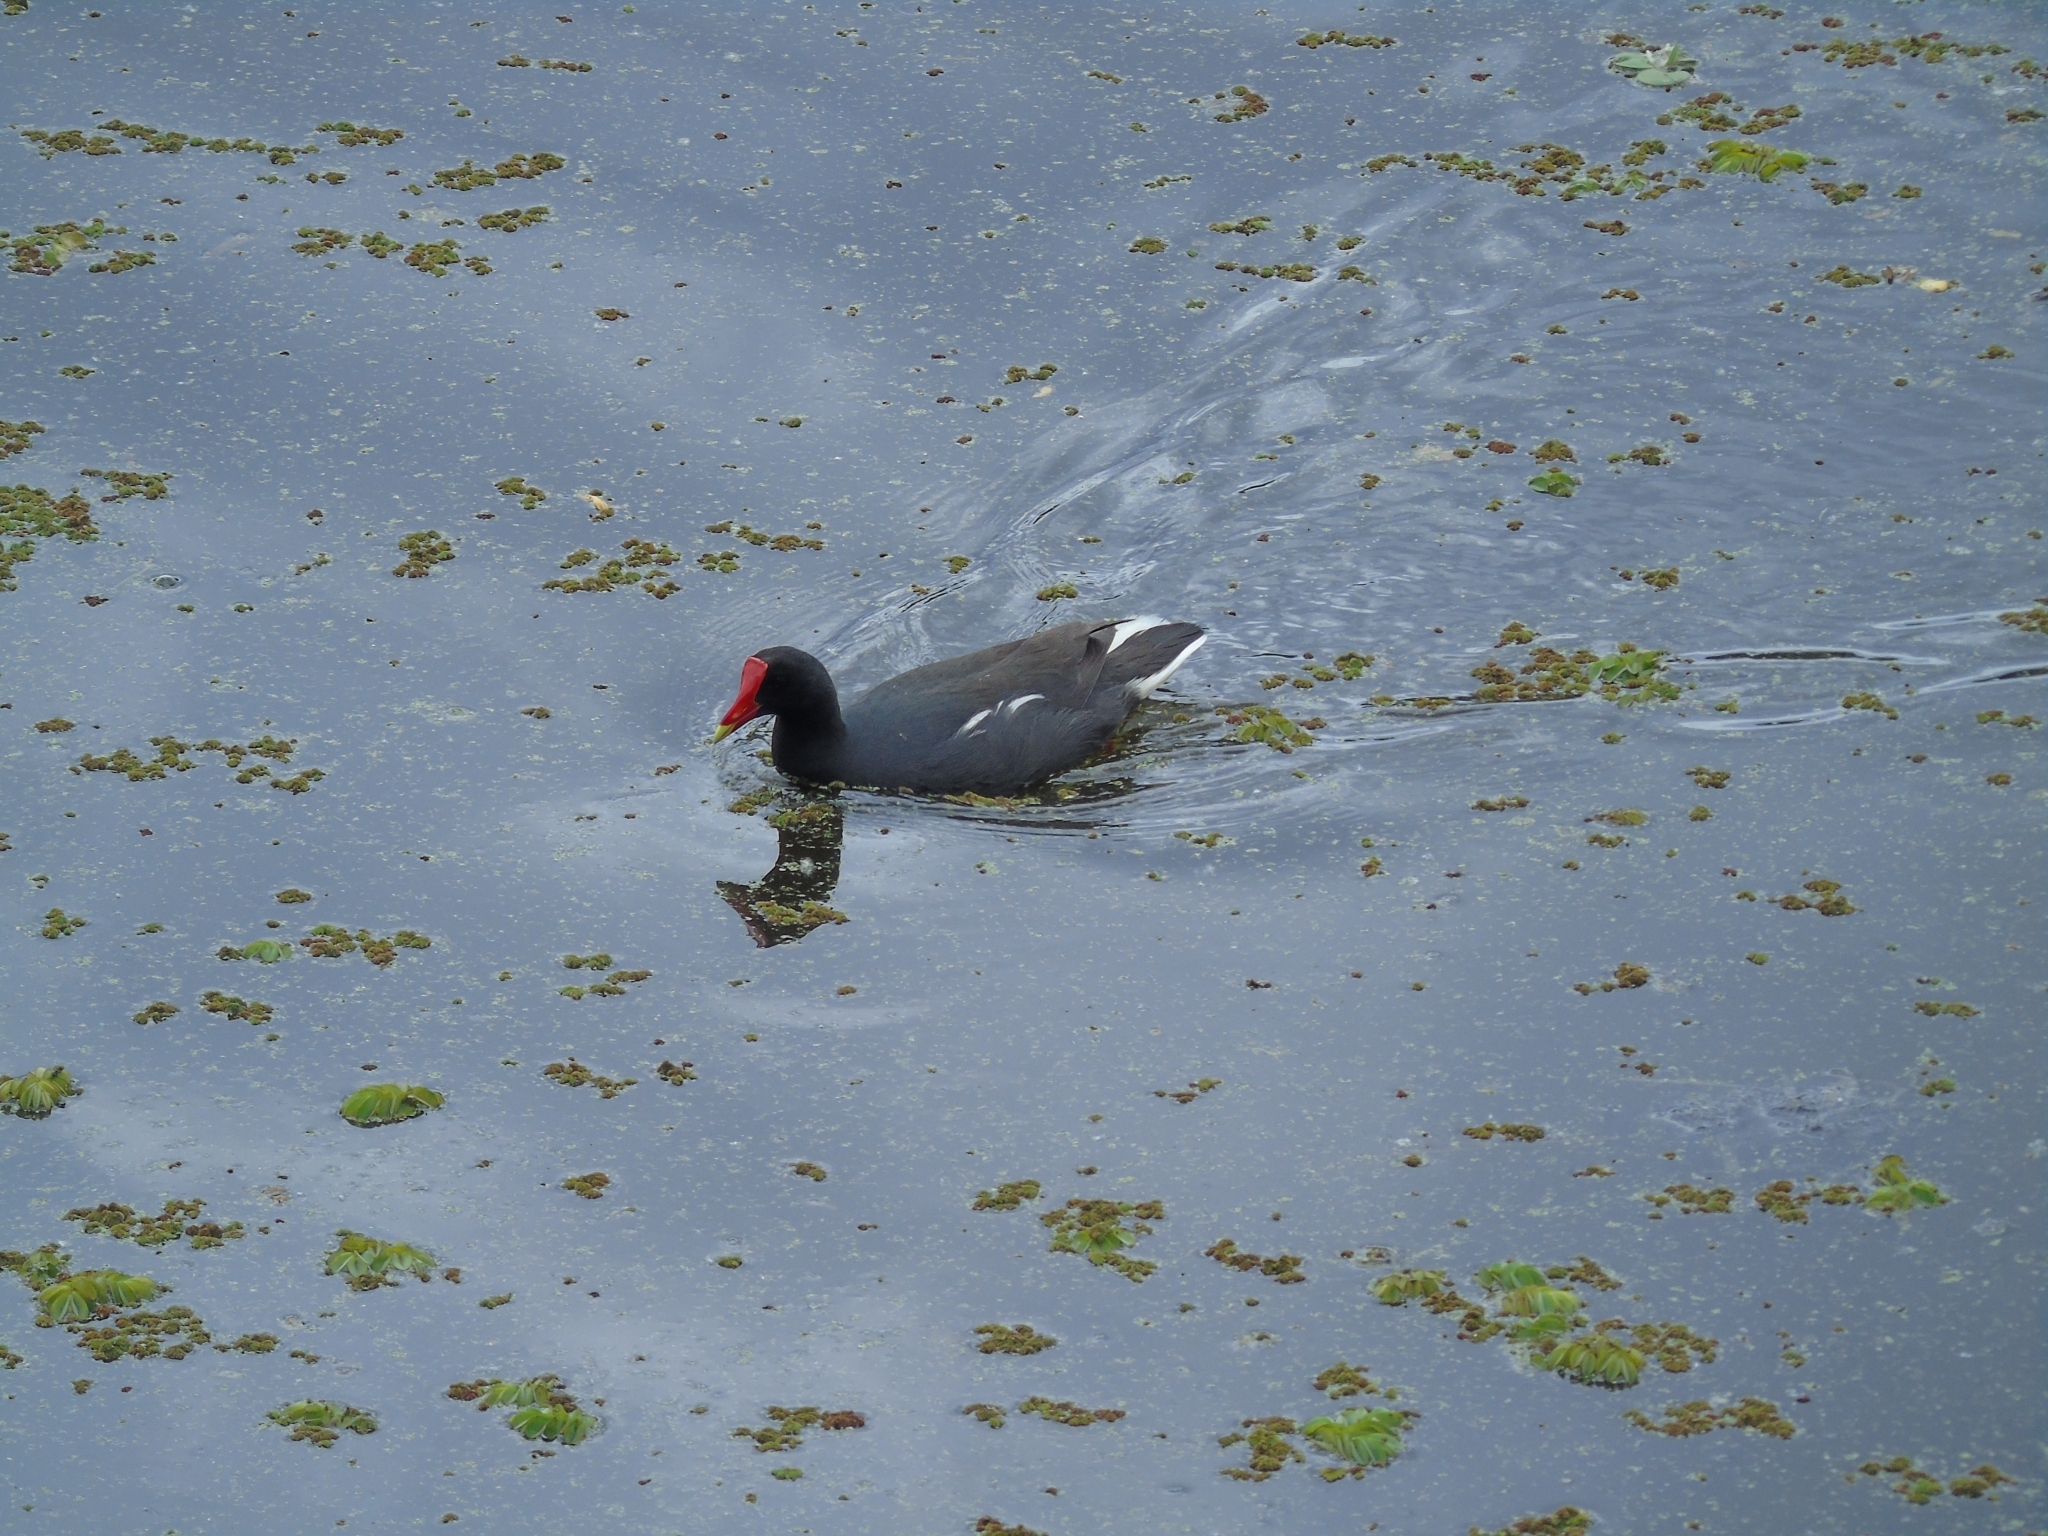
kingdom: Animalia
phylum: Chordata
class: Aves
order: Gruiformes
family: Rallidae
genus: Gallinula
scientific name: Gallinula chloropus
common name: Common moorhen
